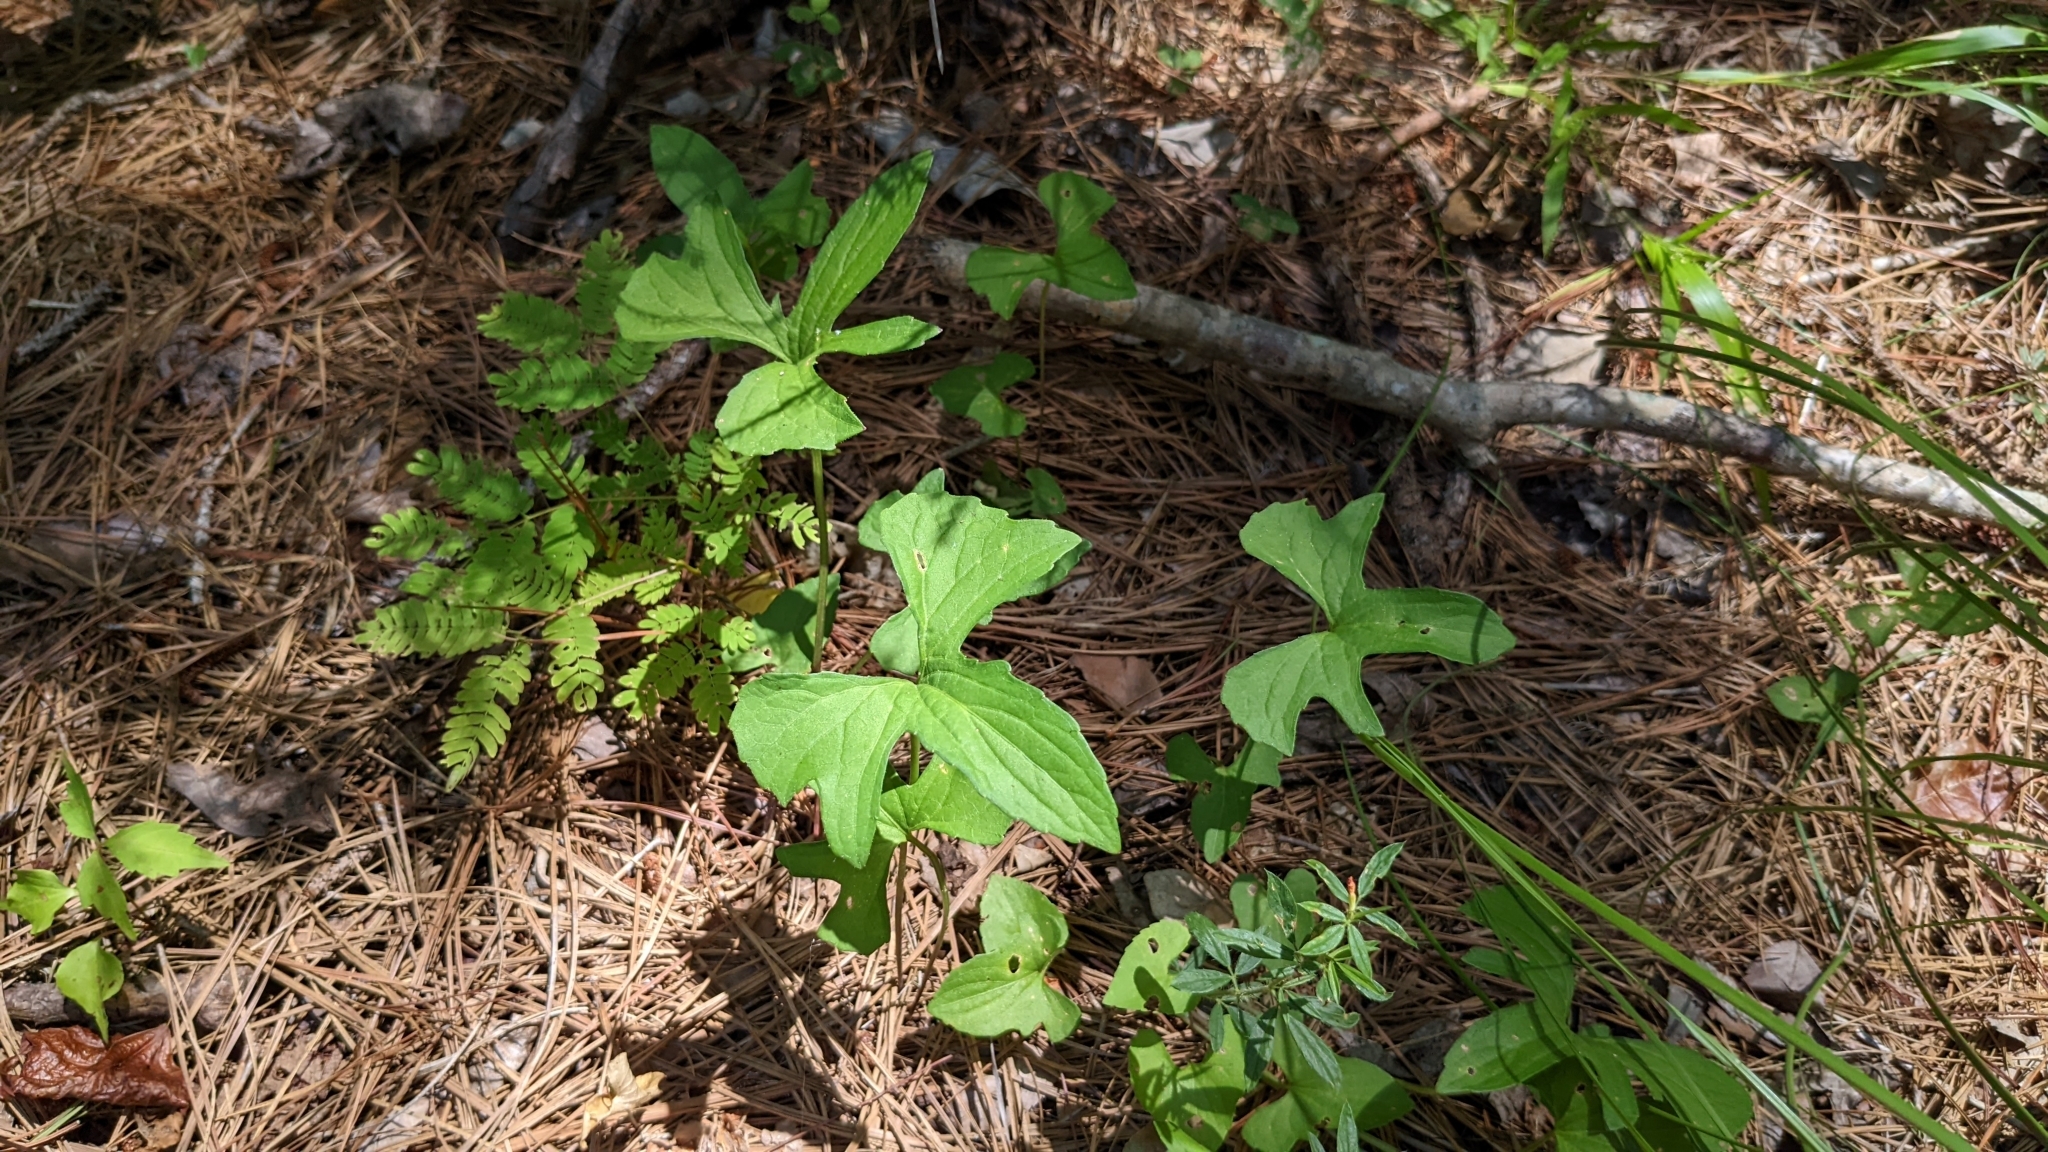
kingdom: Plantae
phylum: Tracheophyta
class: Magnoliopsida
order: Malpighiales
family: Violaceae
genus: Viola
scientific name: Viola palmata
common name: Early blue violet
